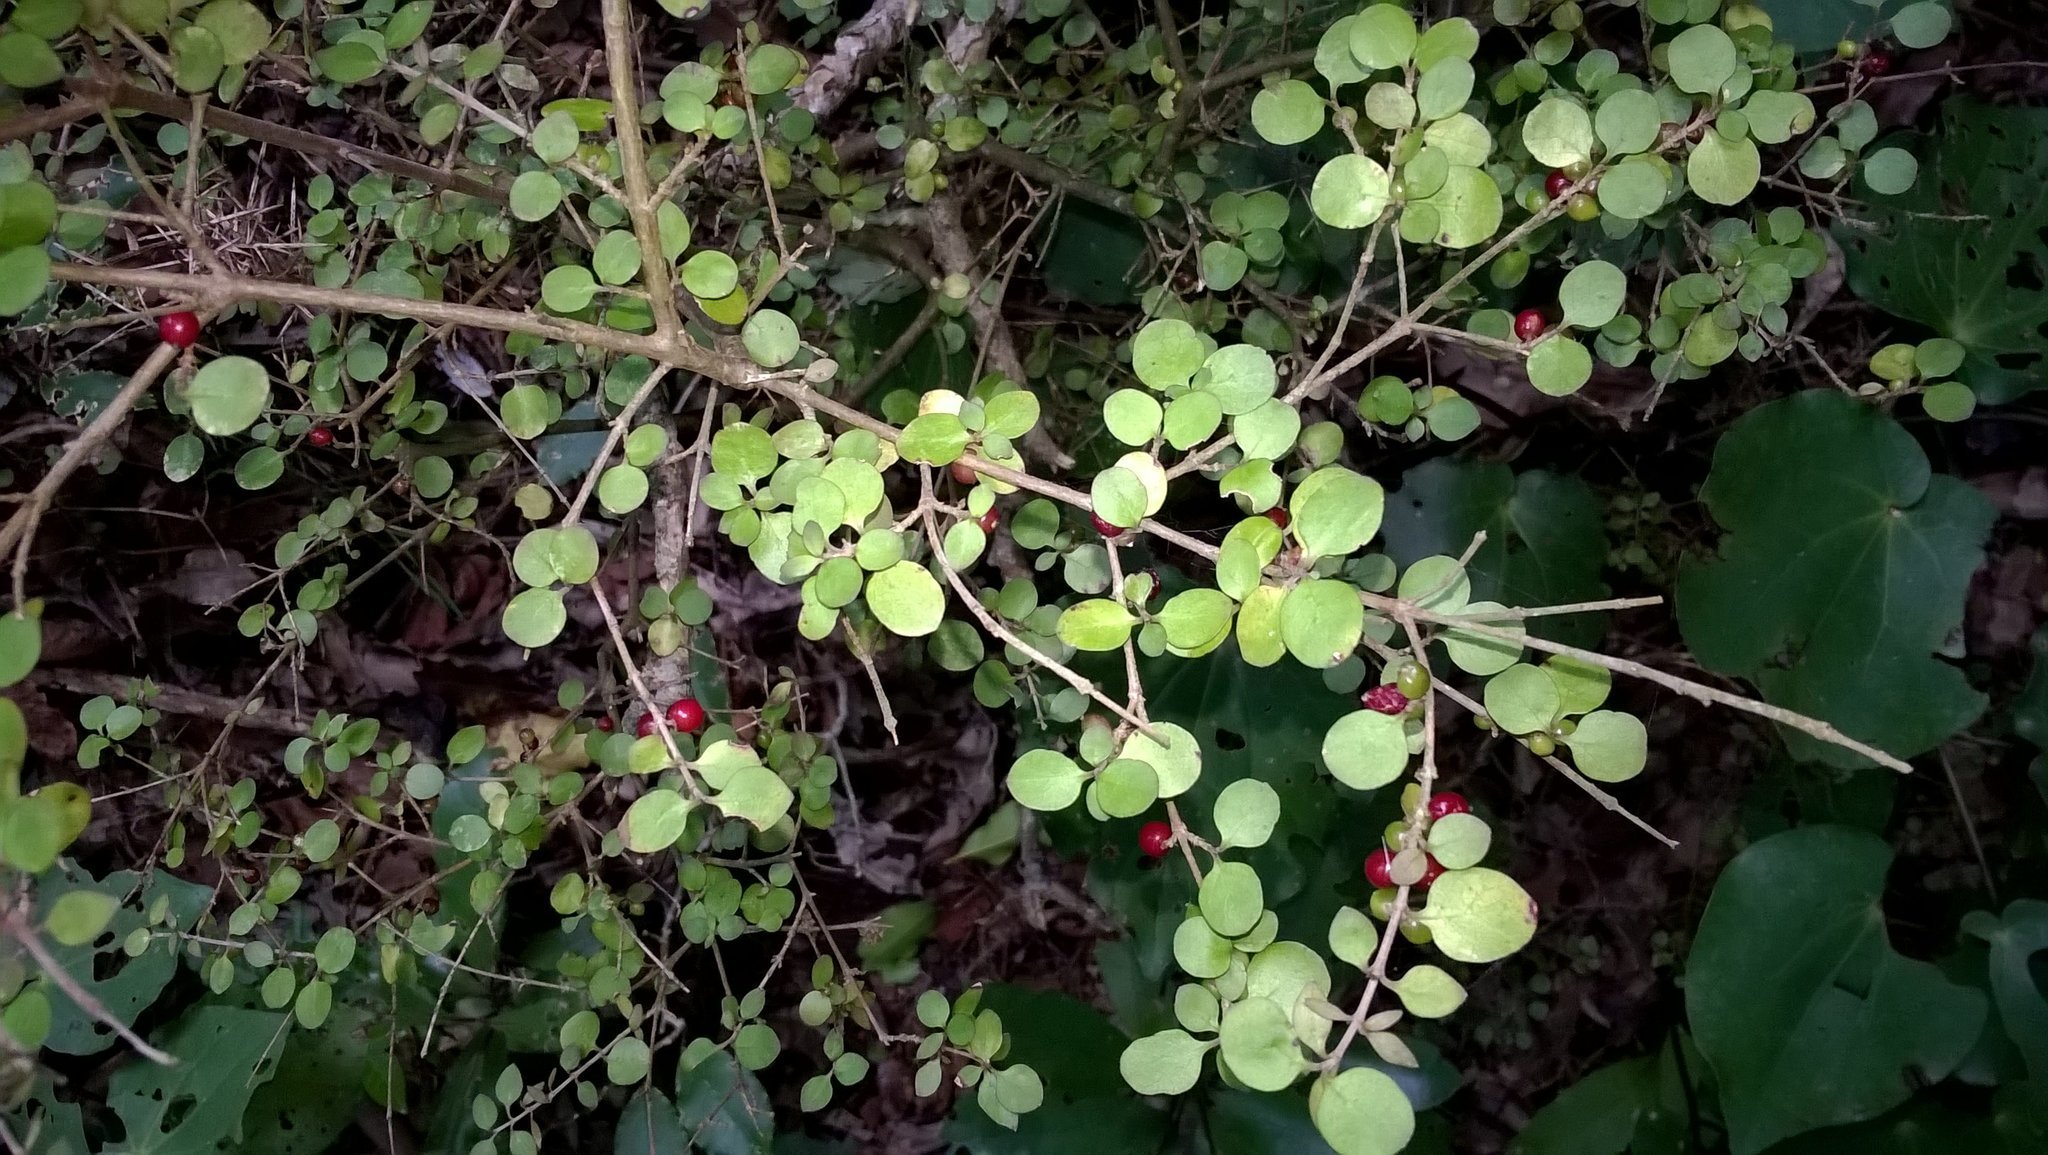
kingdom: Plantae
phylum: Tracheophyta
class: Magnoliopsida
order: Gentianales
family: Rubiaceae
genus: Coprosma
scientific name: Coprosma rhamnoides
